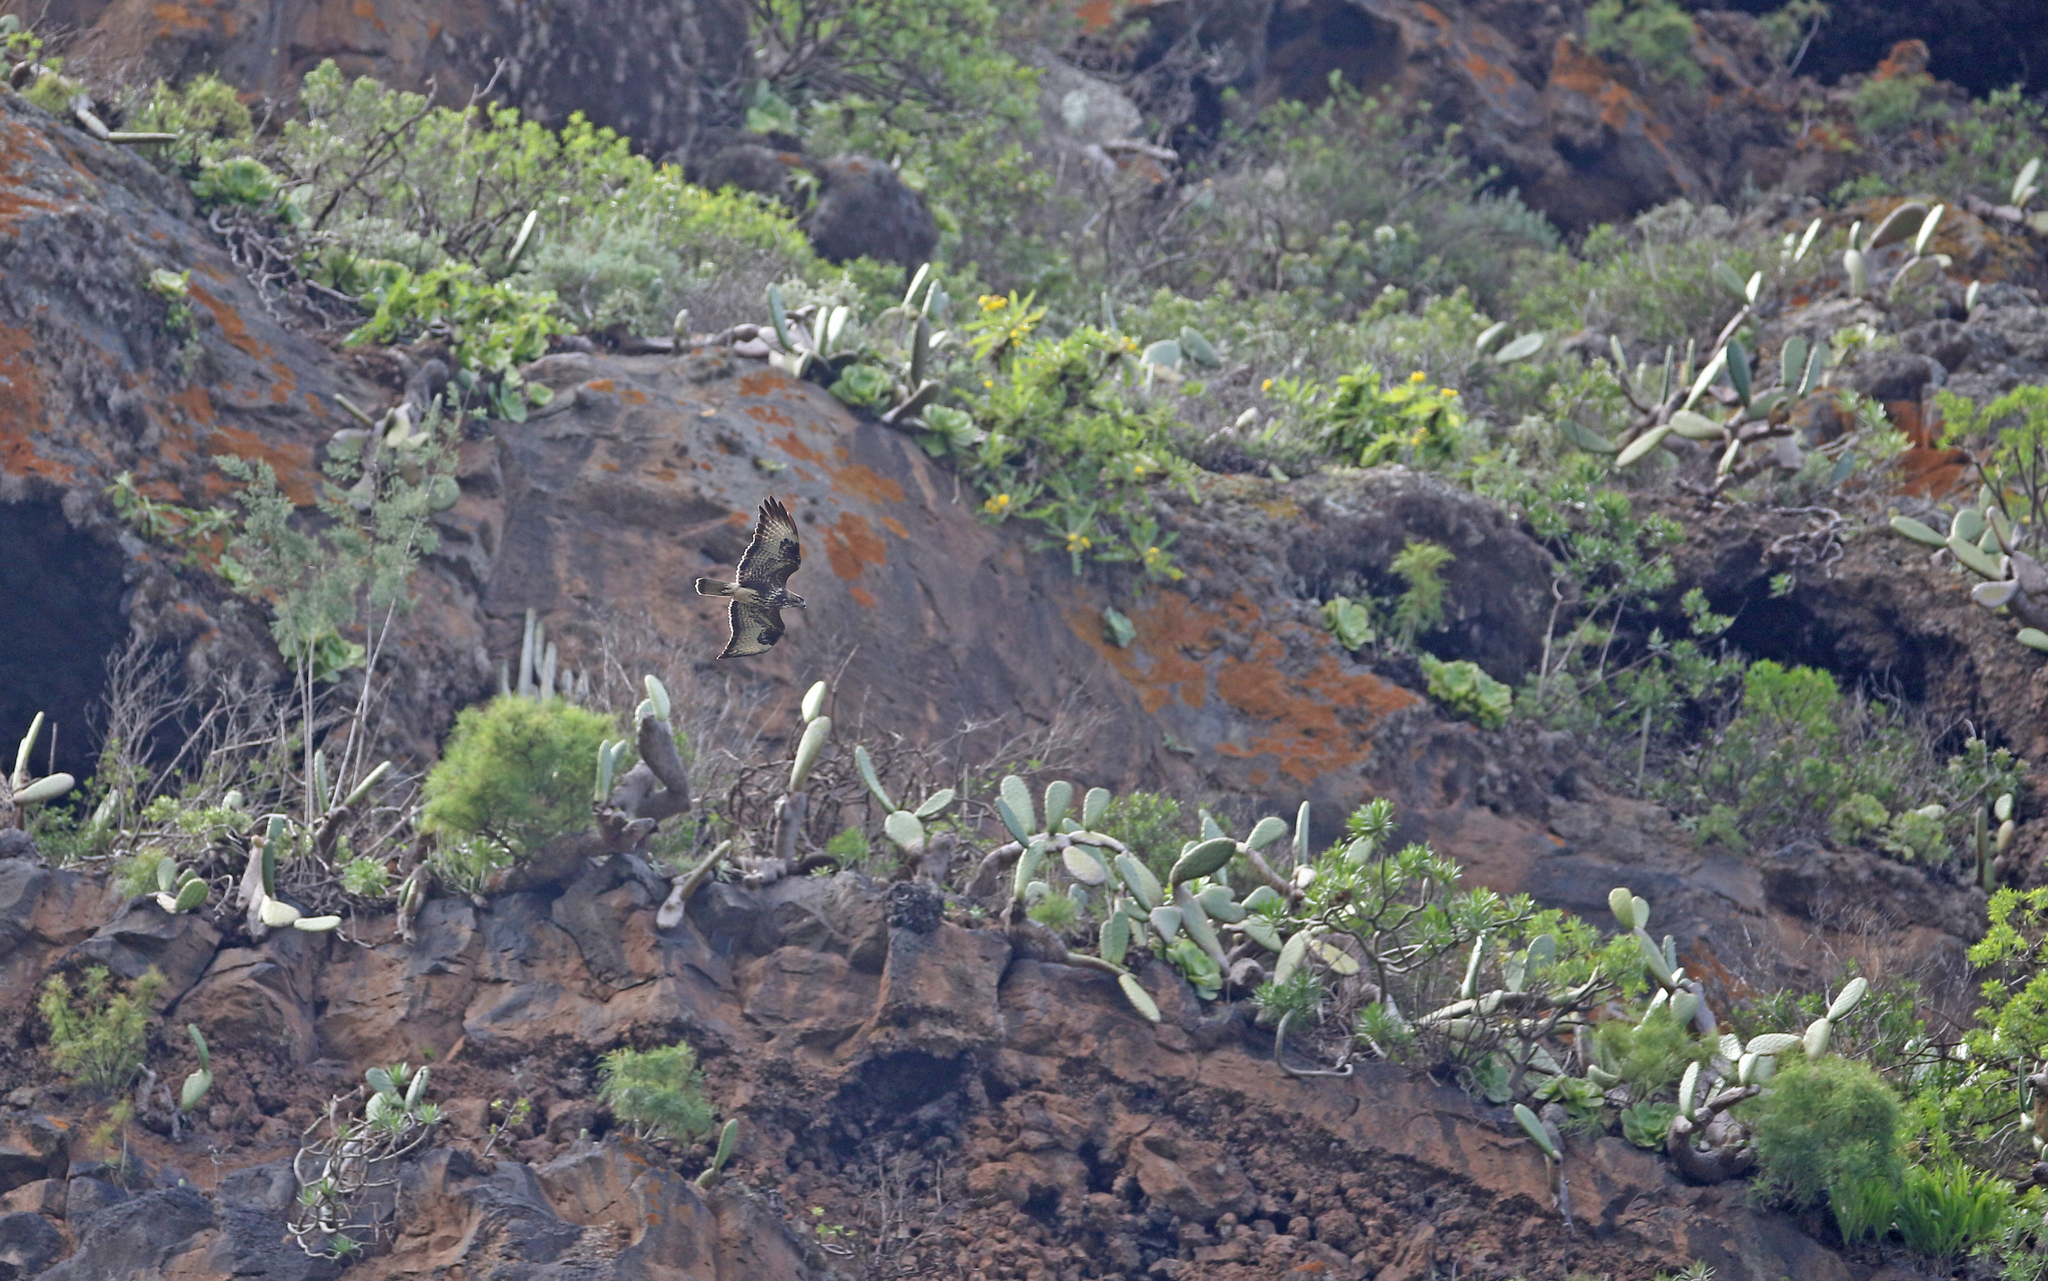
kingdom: Animalia
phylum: Chordata
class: Aves
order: Accipitriformes
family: Accipitridae
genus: Buteo
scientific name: Buteo buteo
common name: Common buzzard
